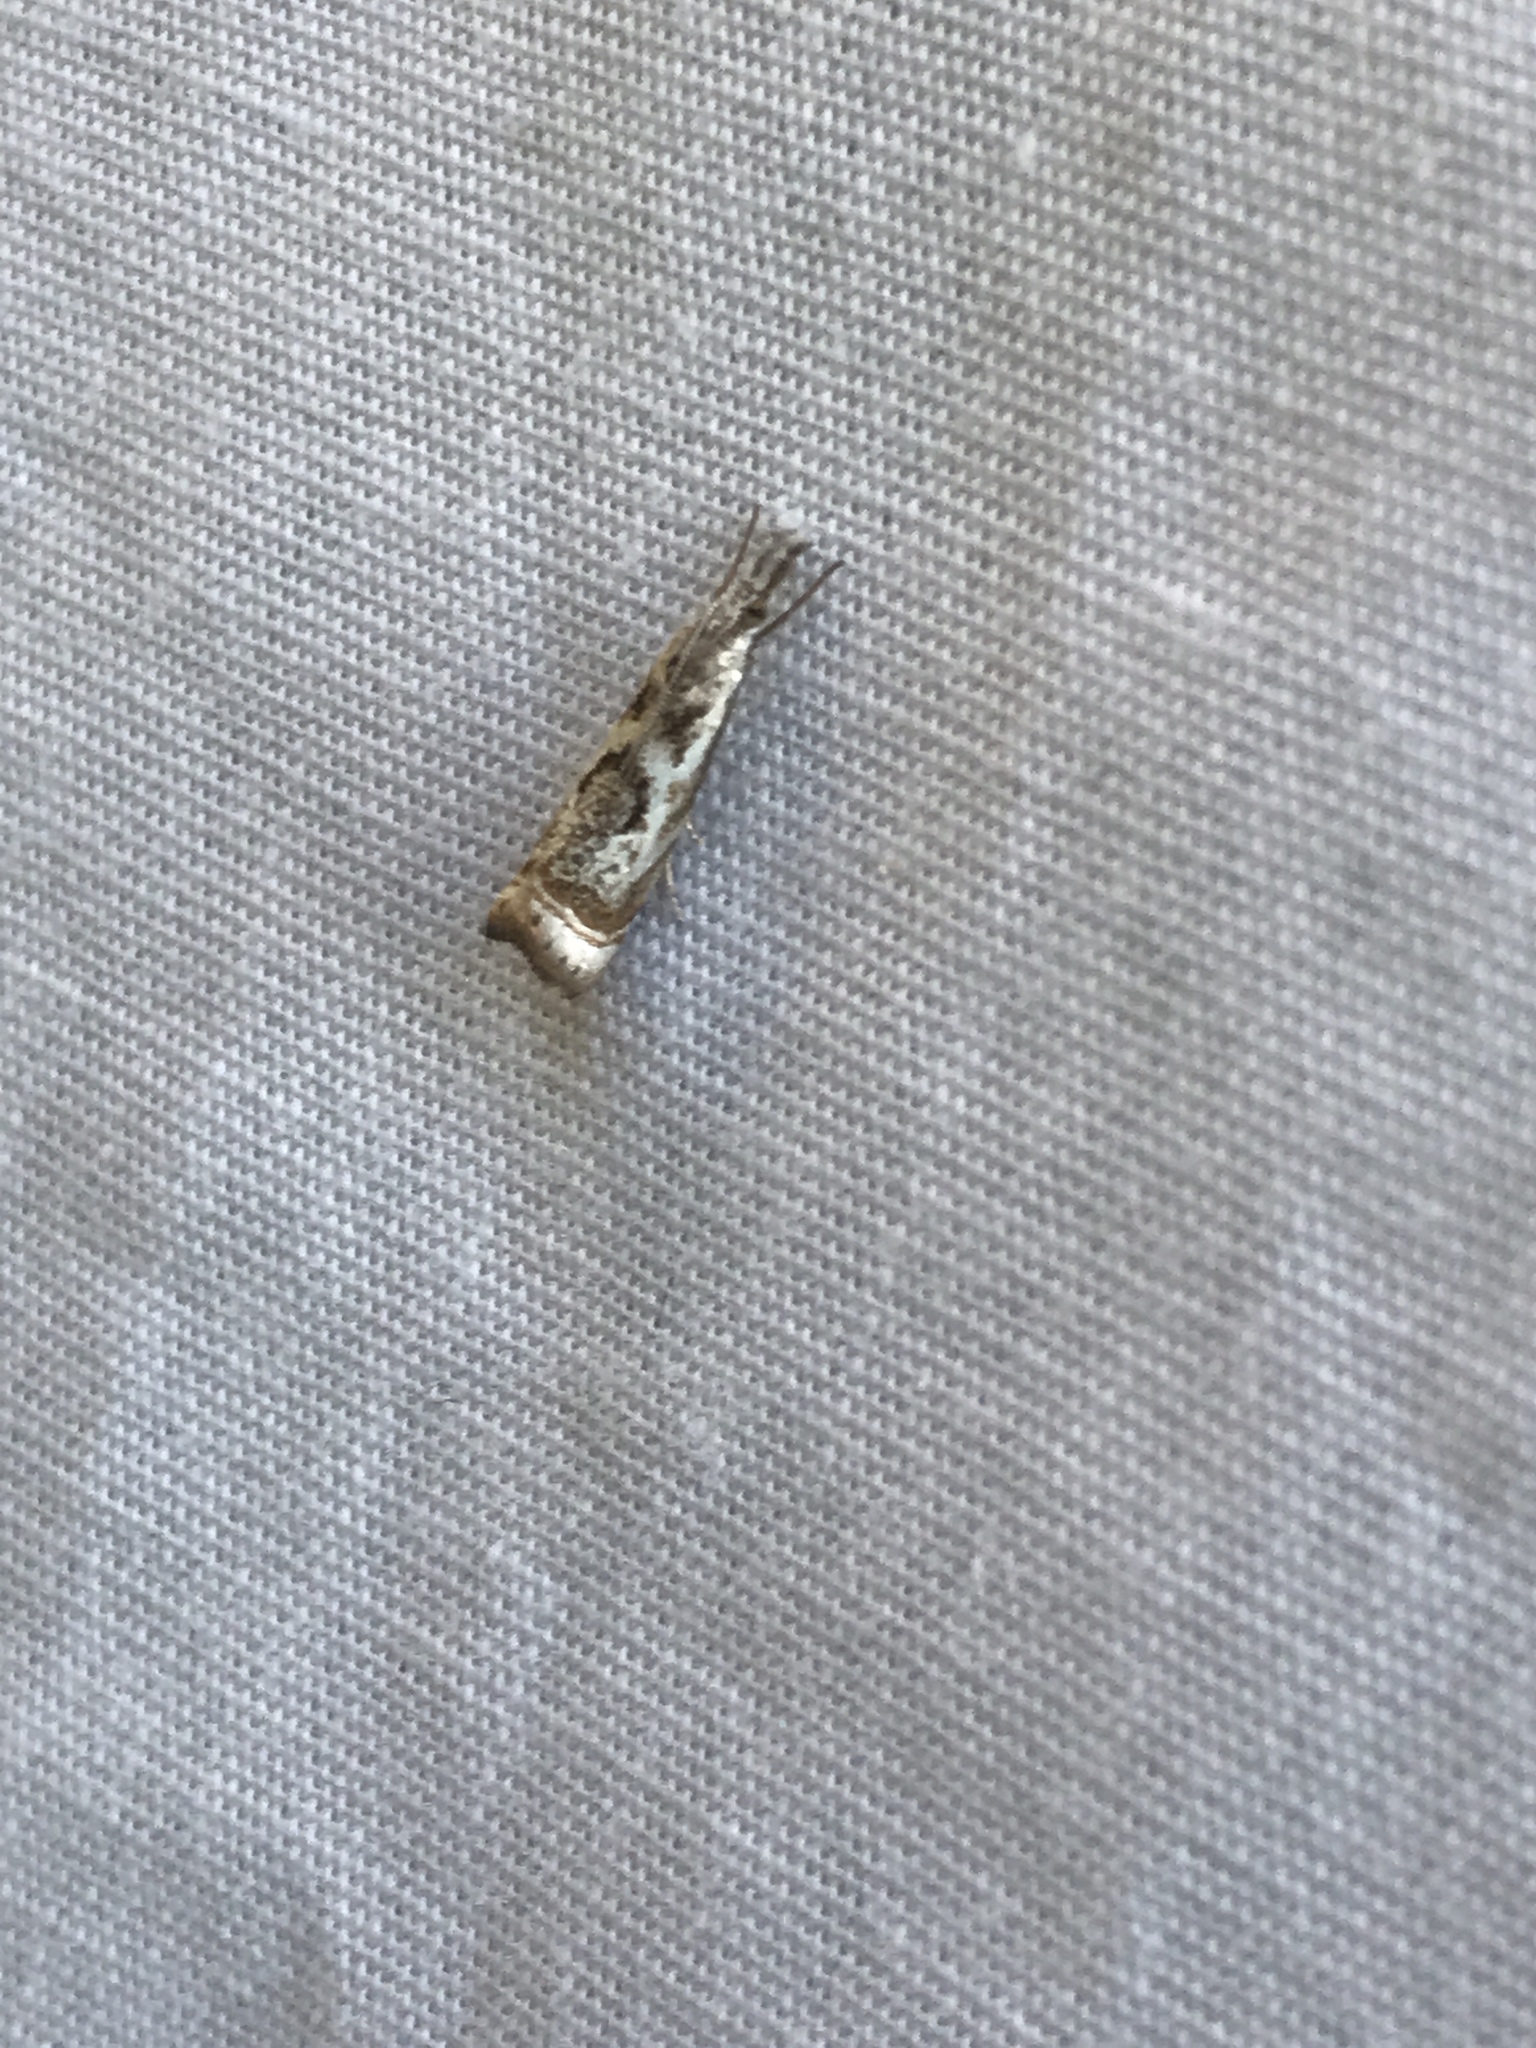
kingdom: Animalia
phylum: Arthropoda
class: Insecta
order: Lepidoptera
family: Crambidae
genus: Microcrambus
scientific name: Microcrambus elegans
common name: Elegant grass-veneer
